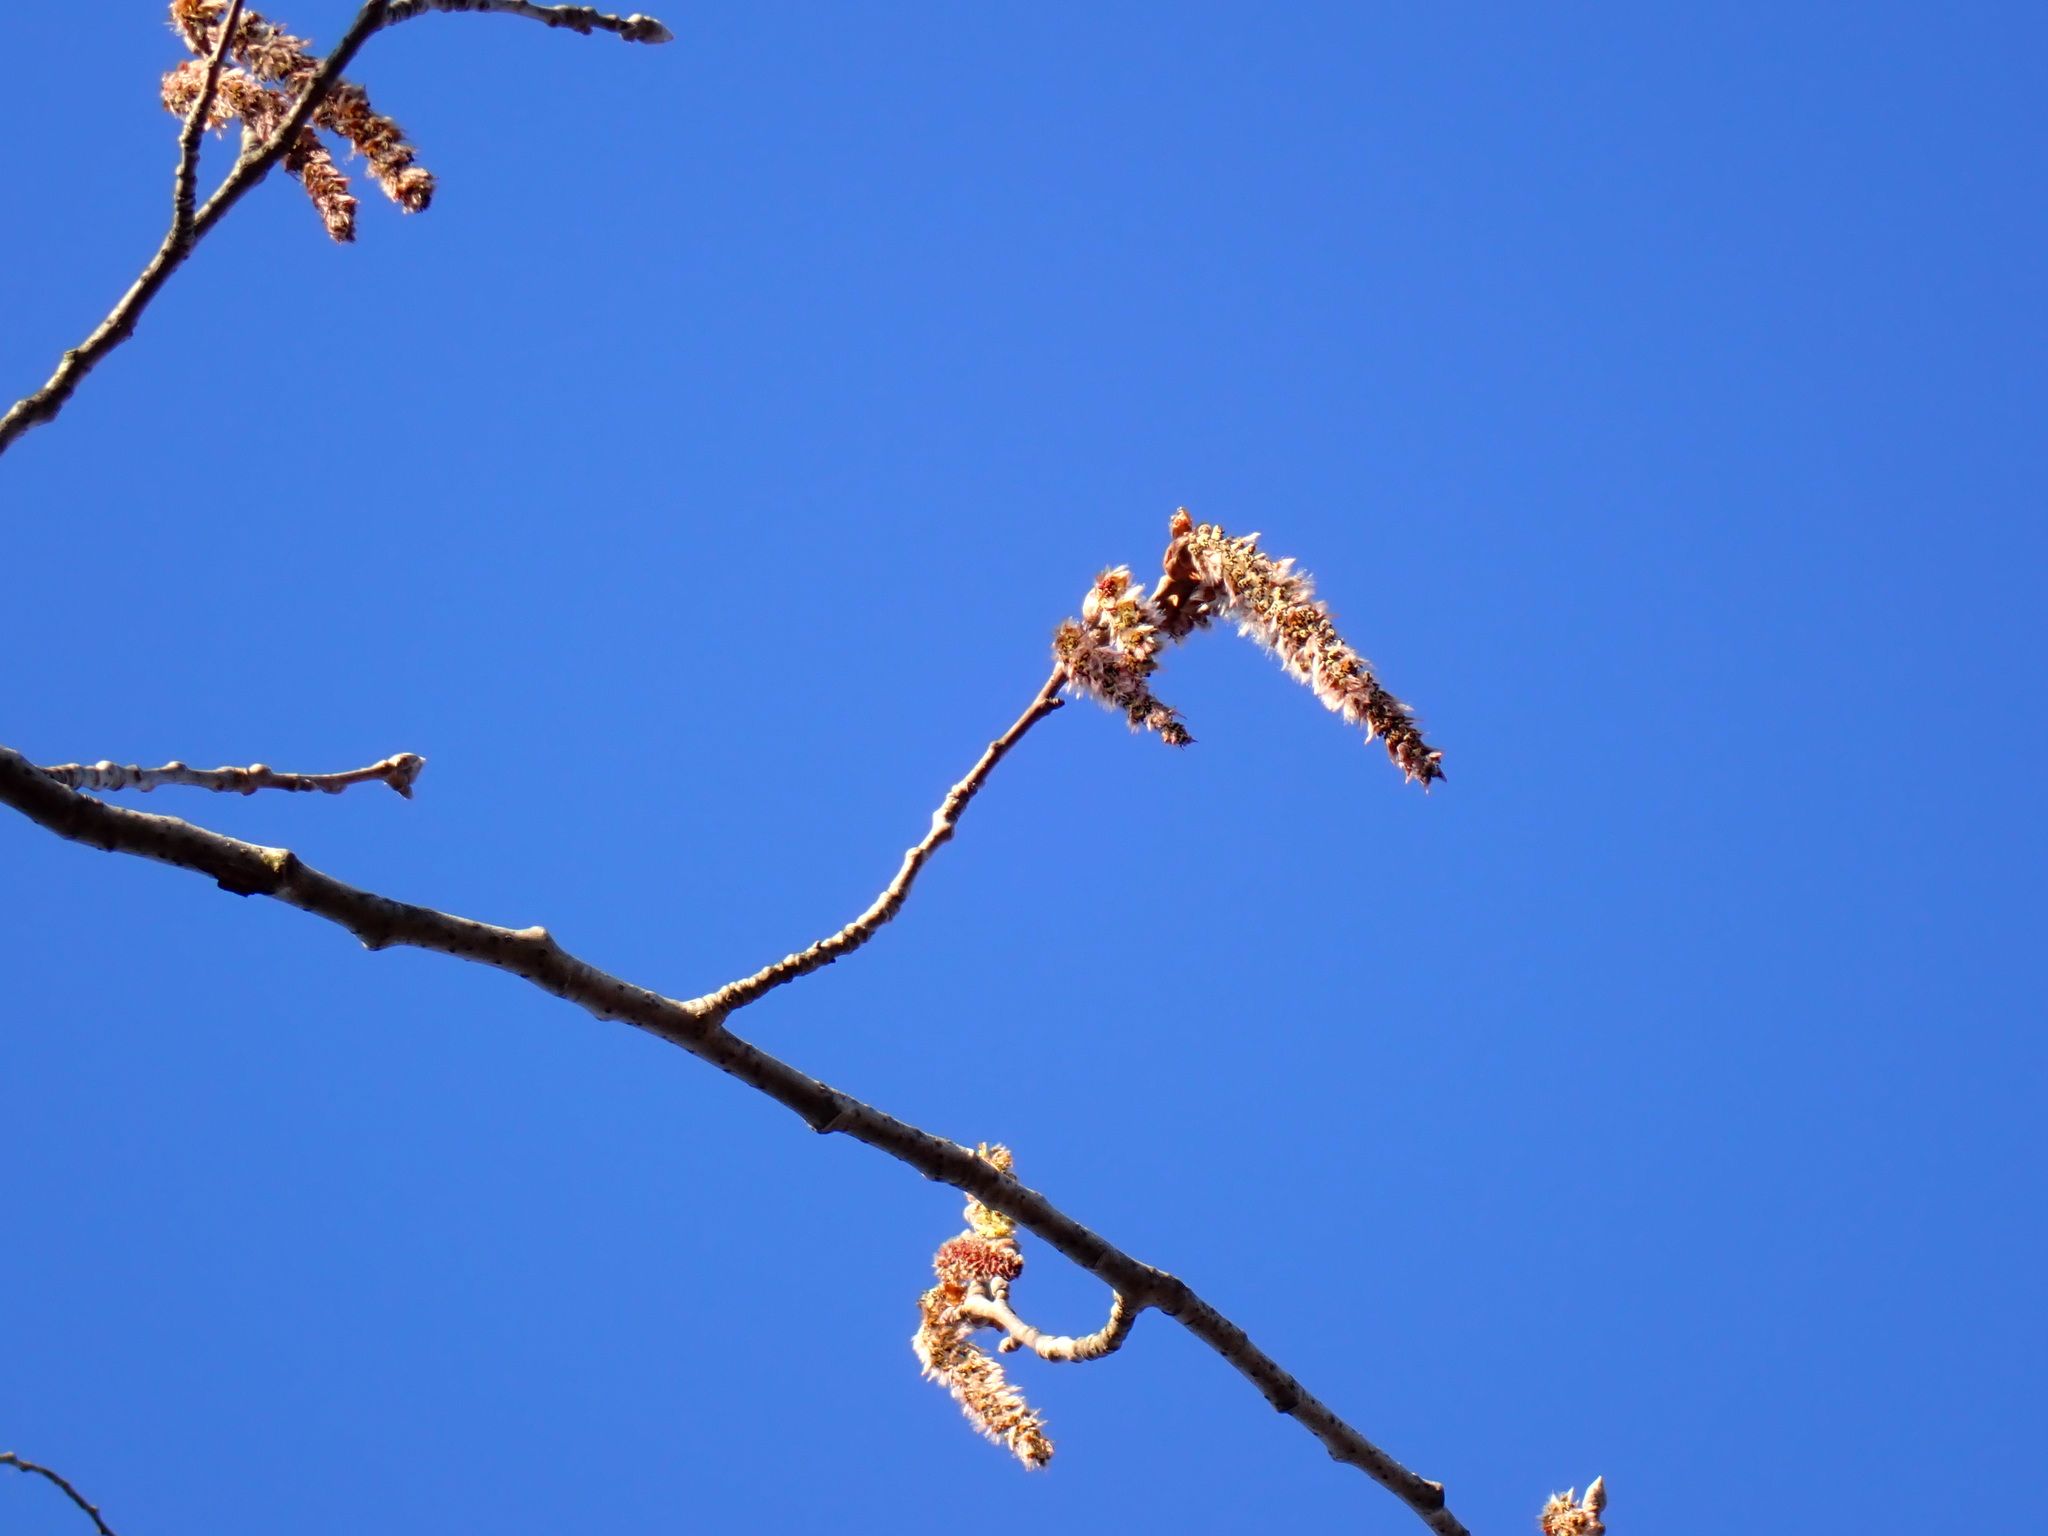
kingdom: Plantae
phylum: Tracheophyta
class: Magnoliopsida
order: Malpighiales
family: Salicaceae
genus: Populus
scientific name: Populus alba
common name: White poplar
